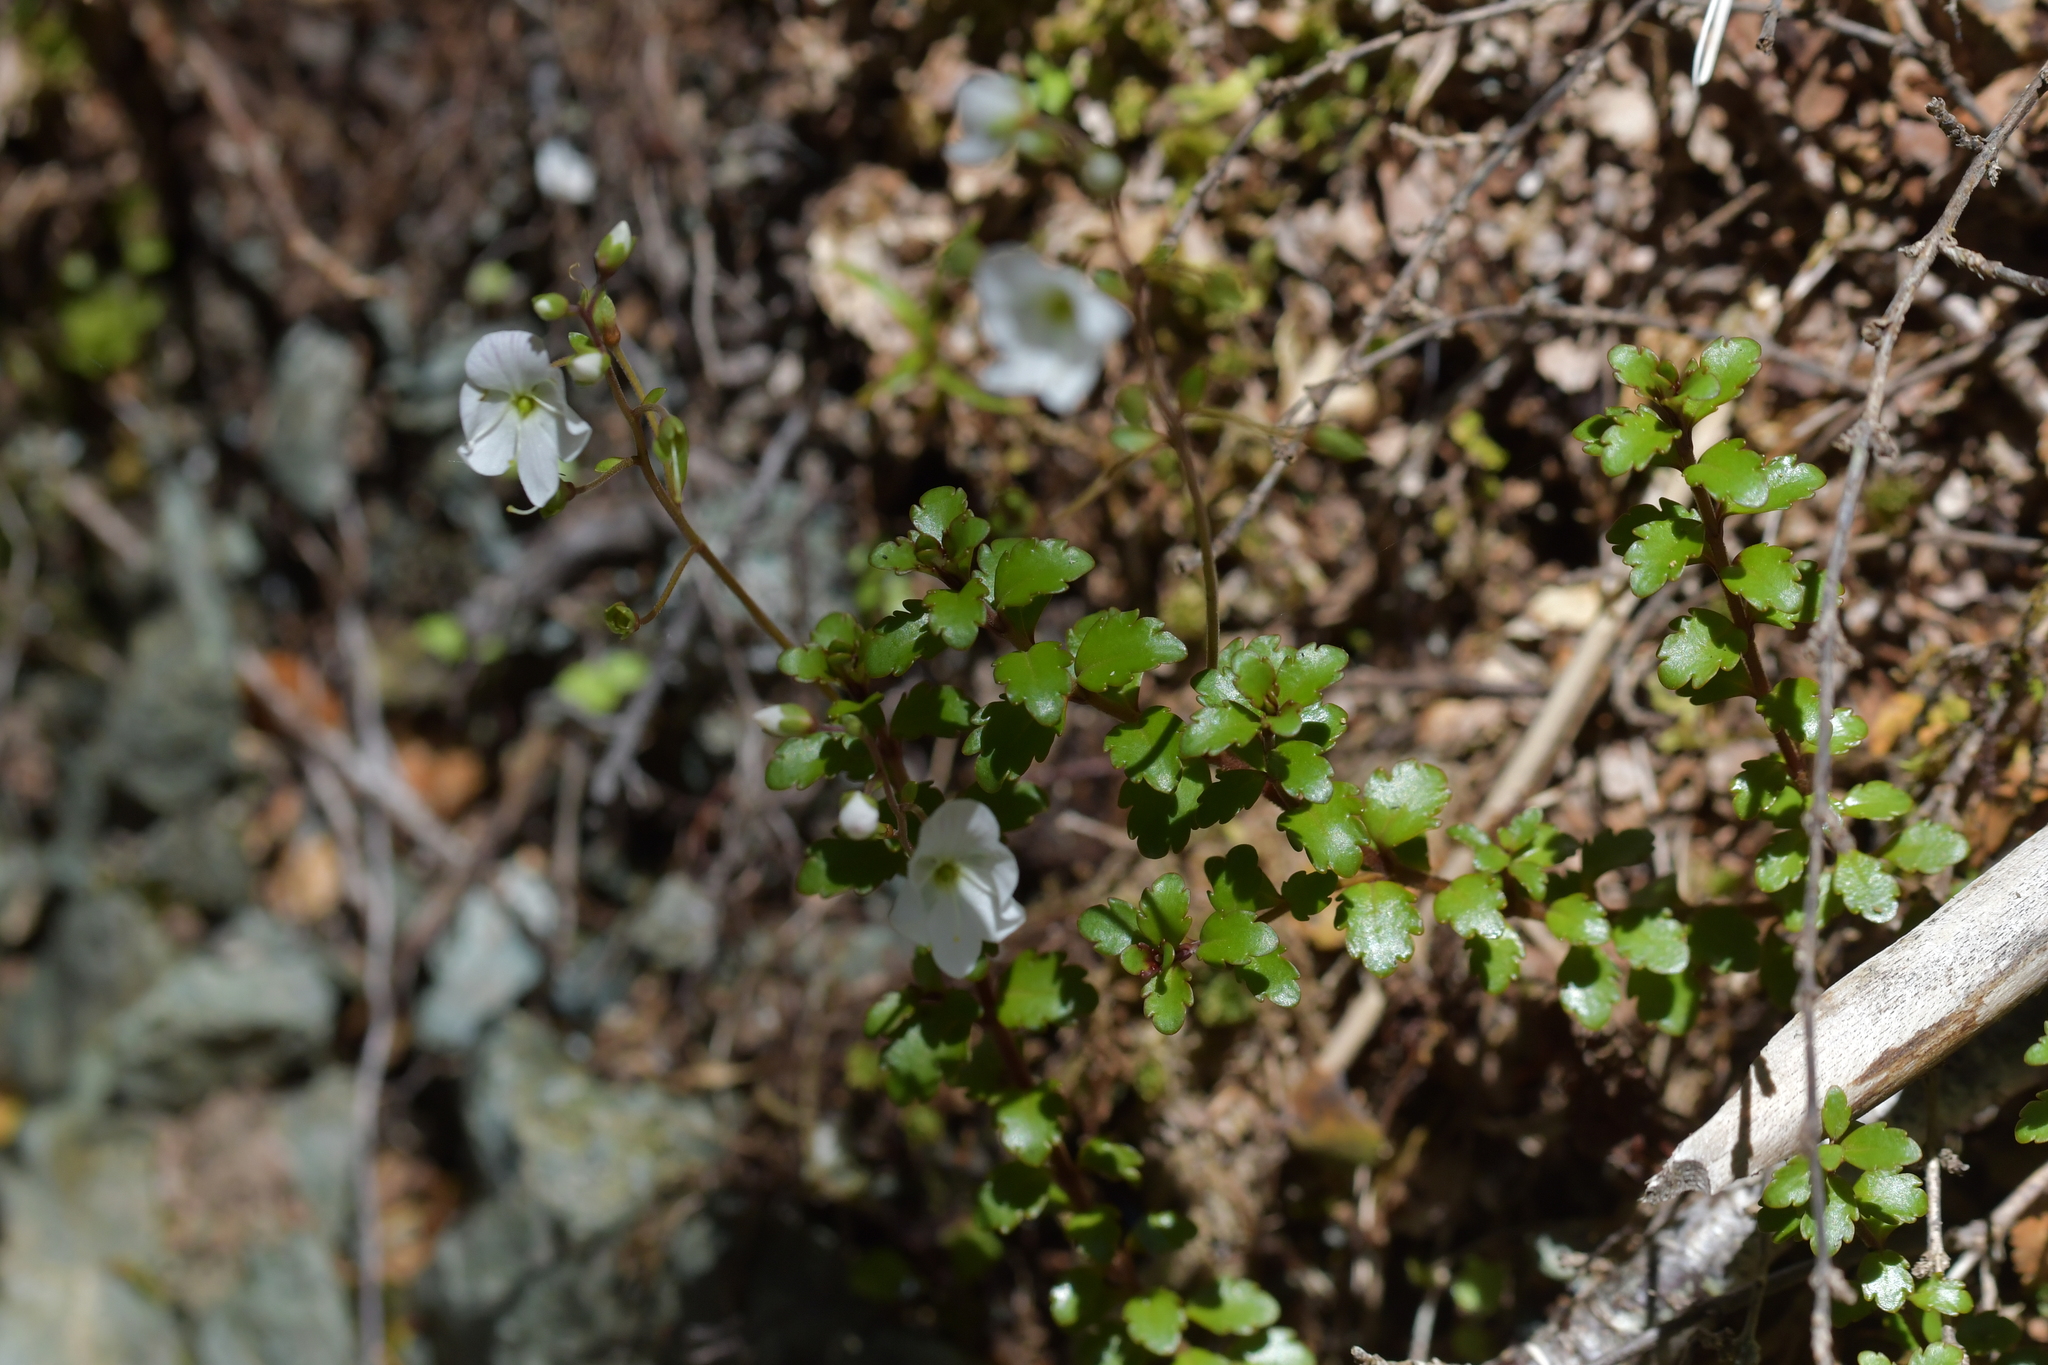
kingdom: Plantae
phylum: Tracheophyta
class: Magnoliopsida
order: Lamiales
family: Plantaginaceae
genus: Veronica
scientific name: Veronica lyallii
